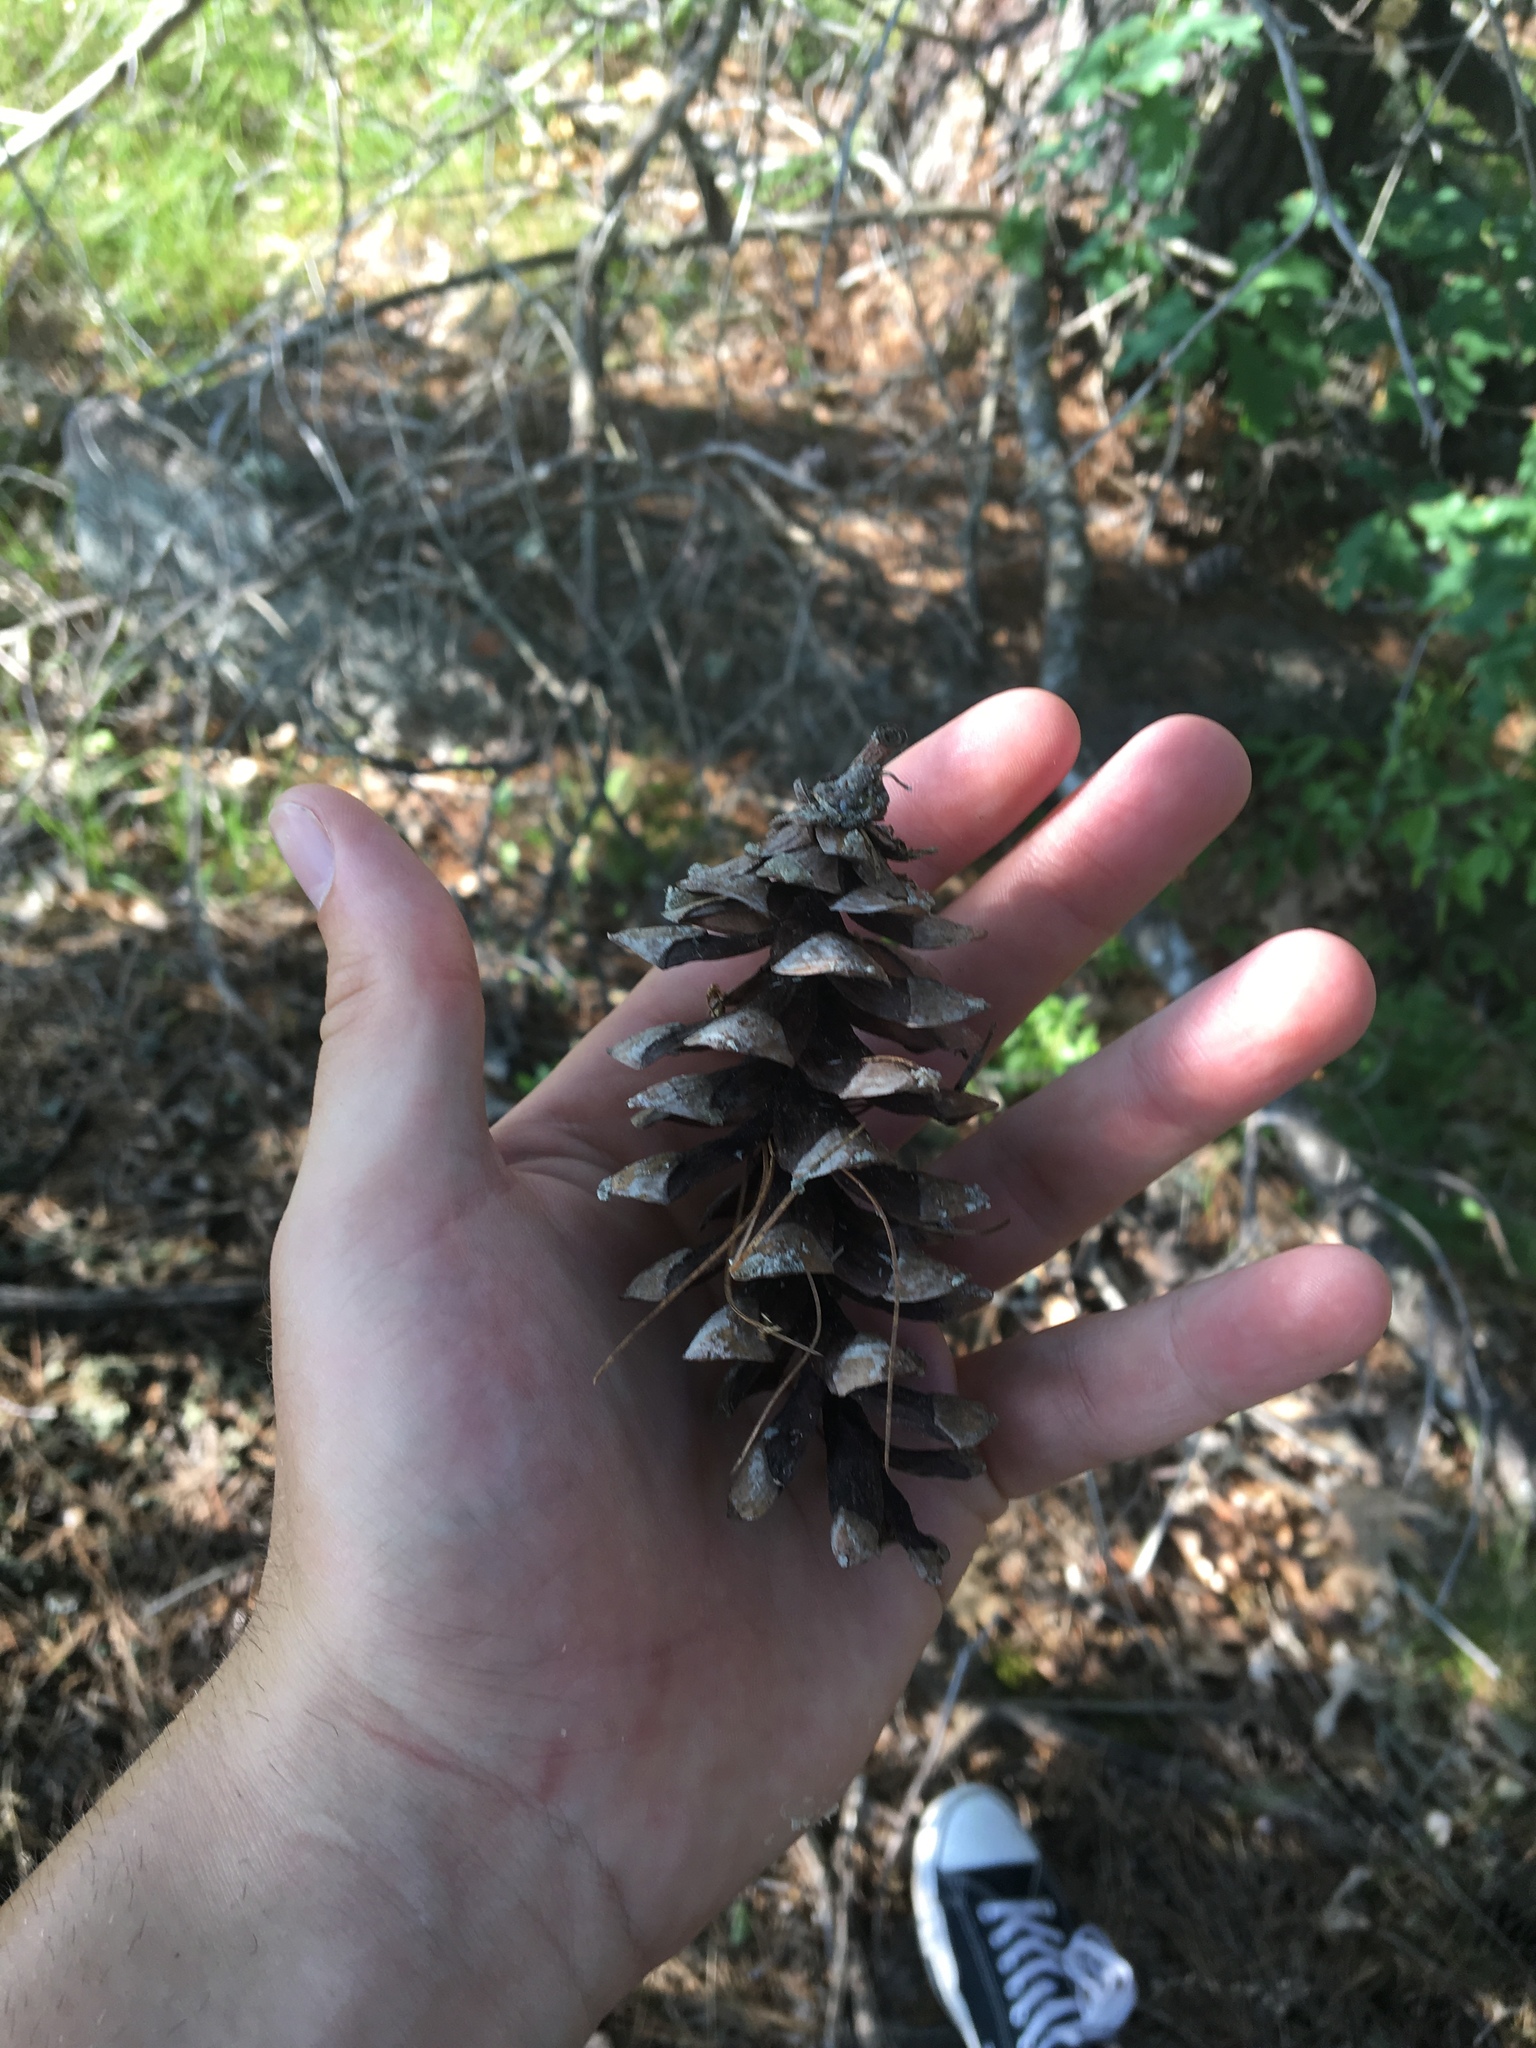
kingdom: Plantae
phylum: Tracheophyta
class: Pinopsida
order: Pinales
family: Pinaceae
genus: Pinus
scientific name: Pinus strobus
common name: Weymouth pine
